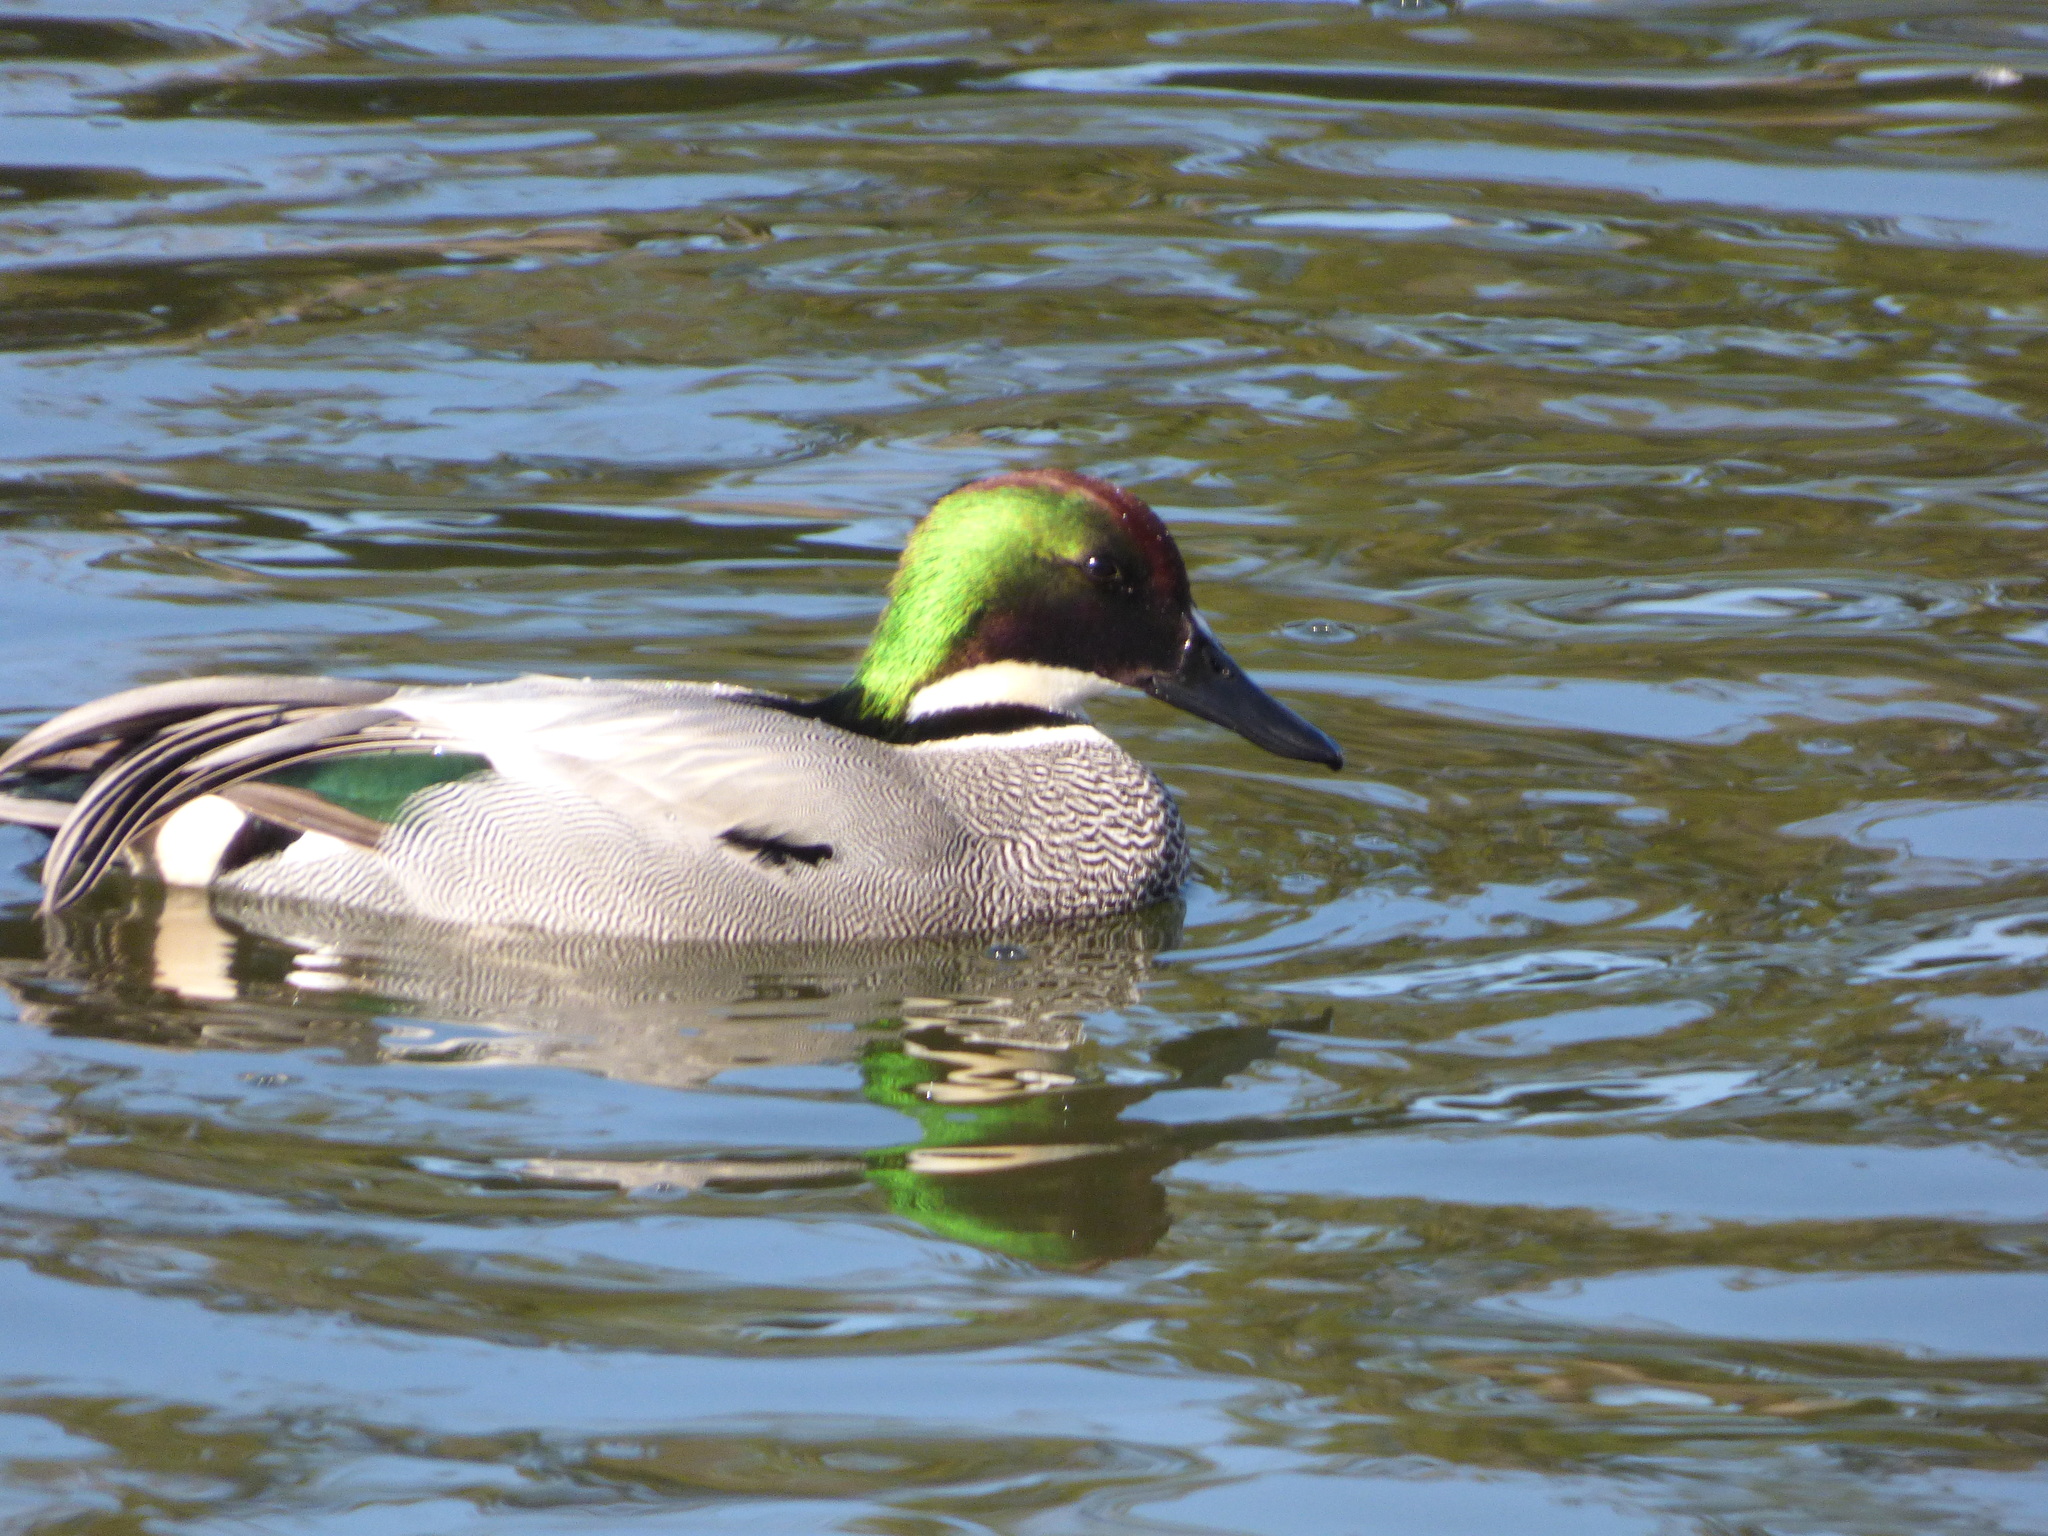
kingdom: Animalia
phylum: Chordata
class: Aves
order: Anseriformes
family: Anatidae
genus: Mareca
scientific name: Mareca falcata
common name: Falcated duck
